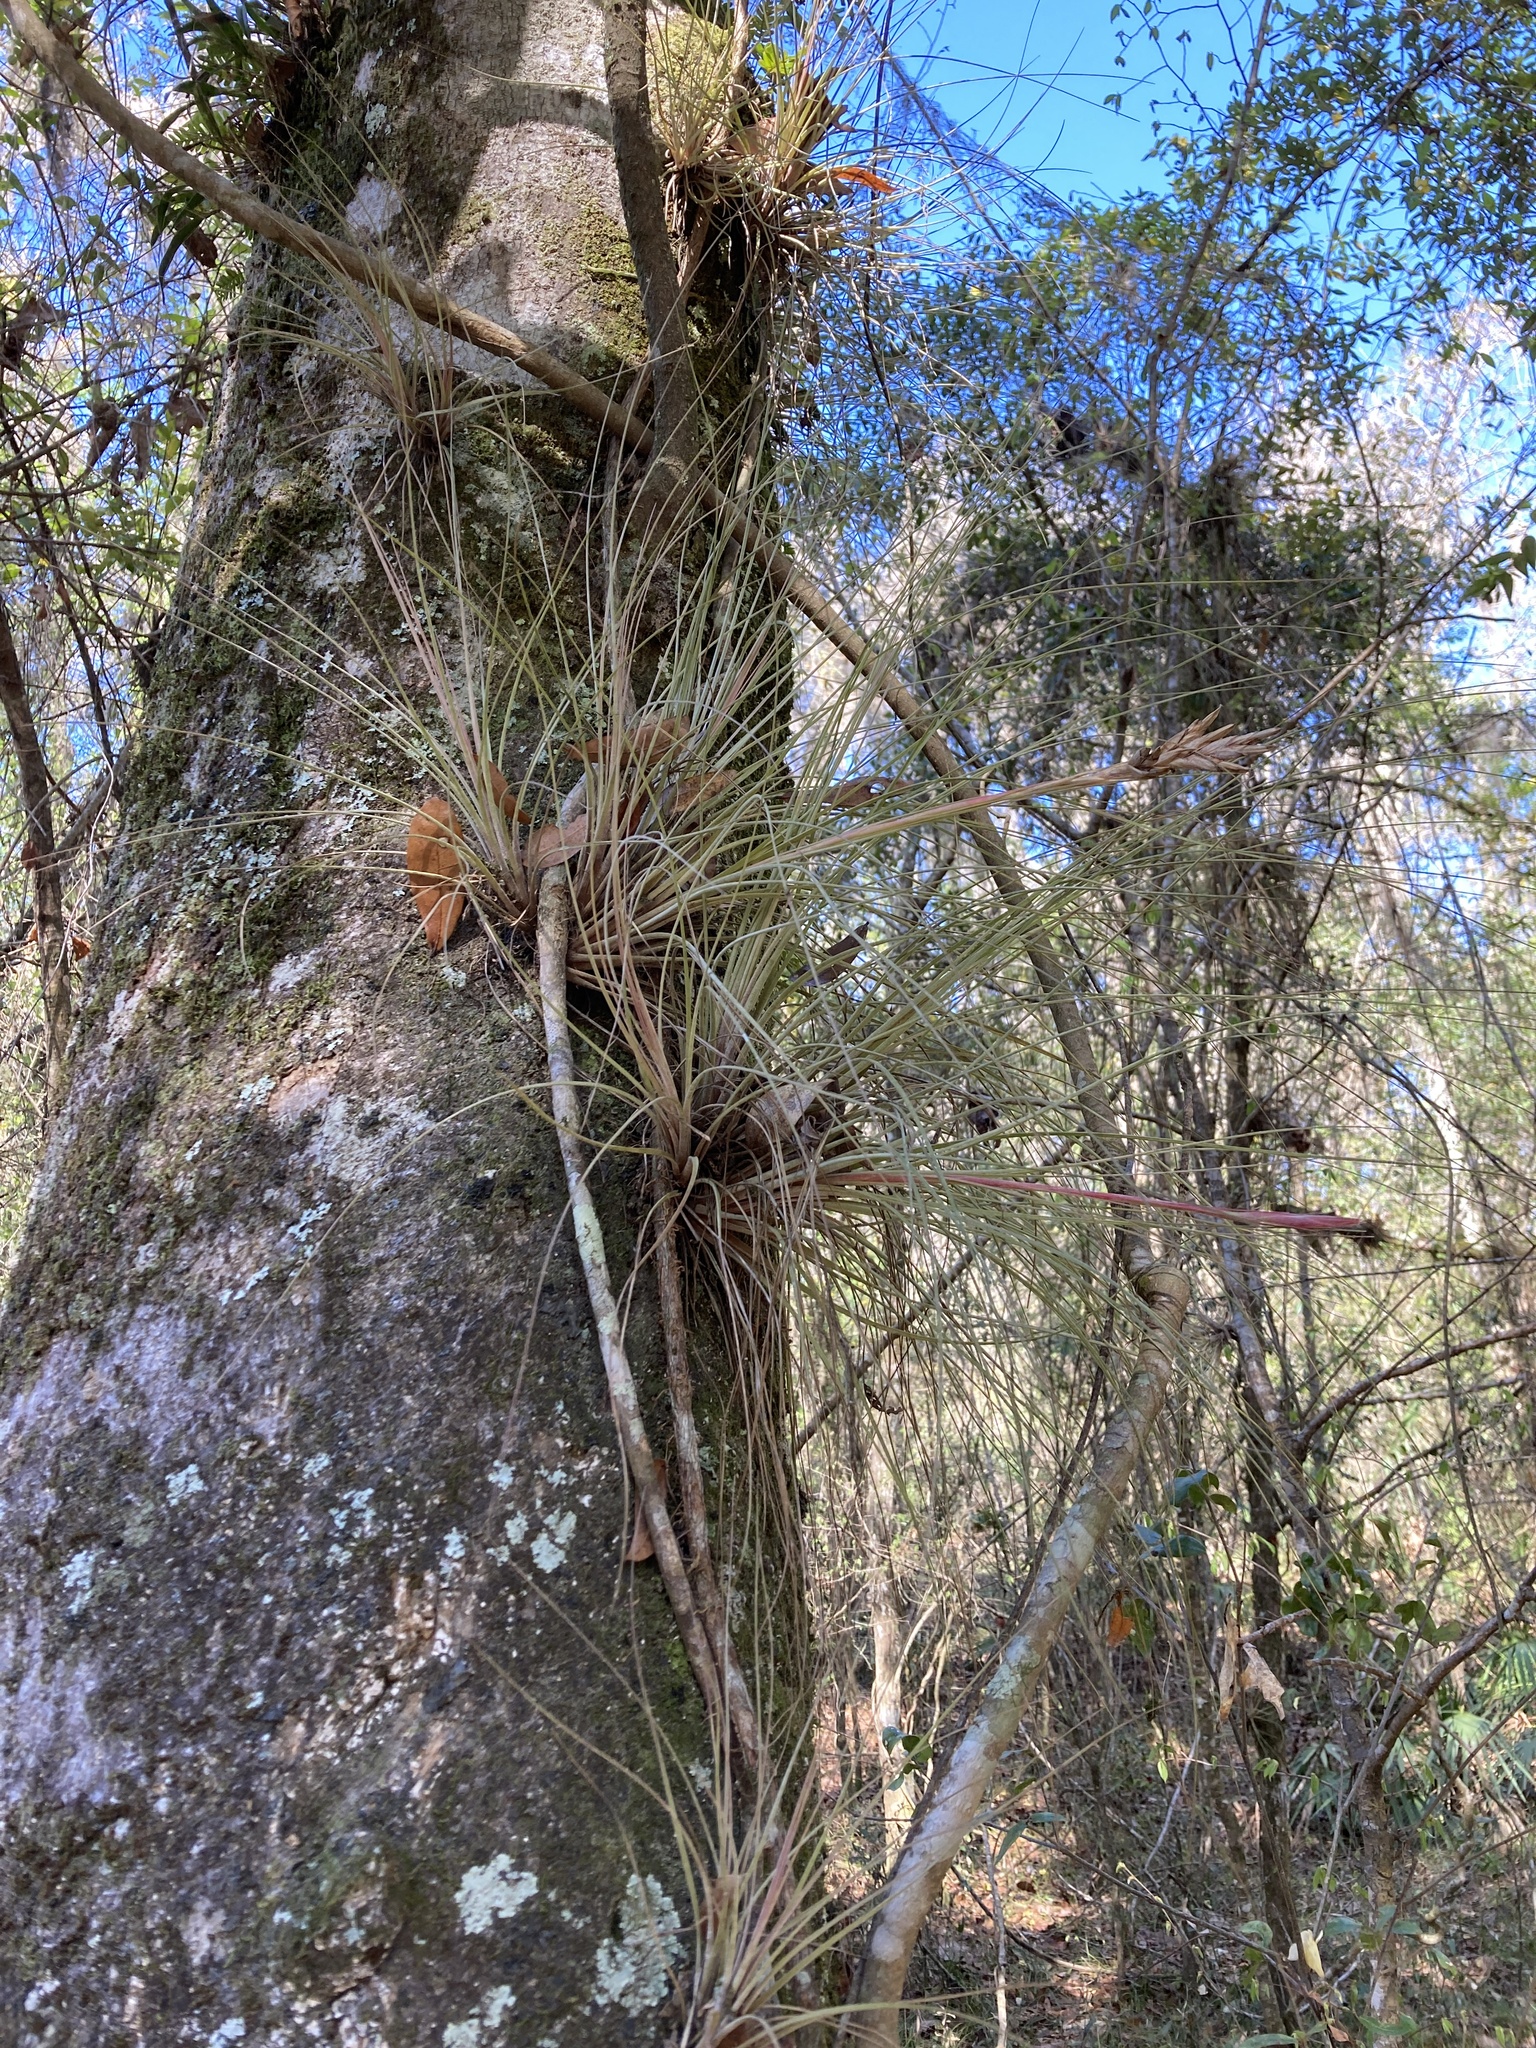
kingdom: Plantae
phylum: Tracheophyta
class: Liliopsida
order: Poales
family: Bromeliaceae
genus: Tillandsia
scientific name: Tillandsia bartramii
